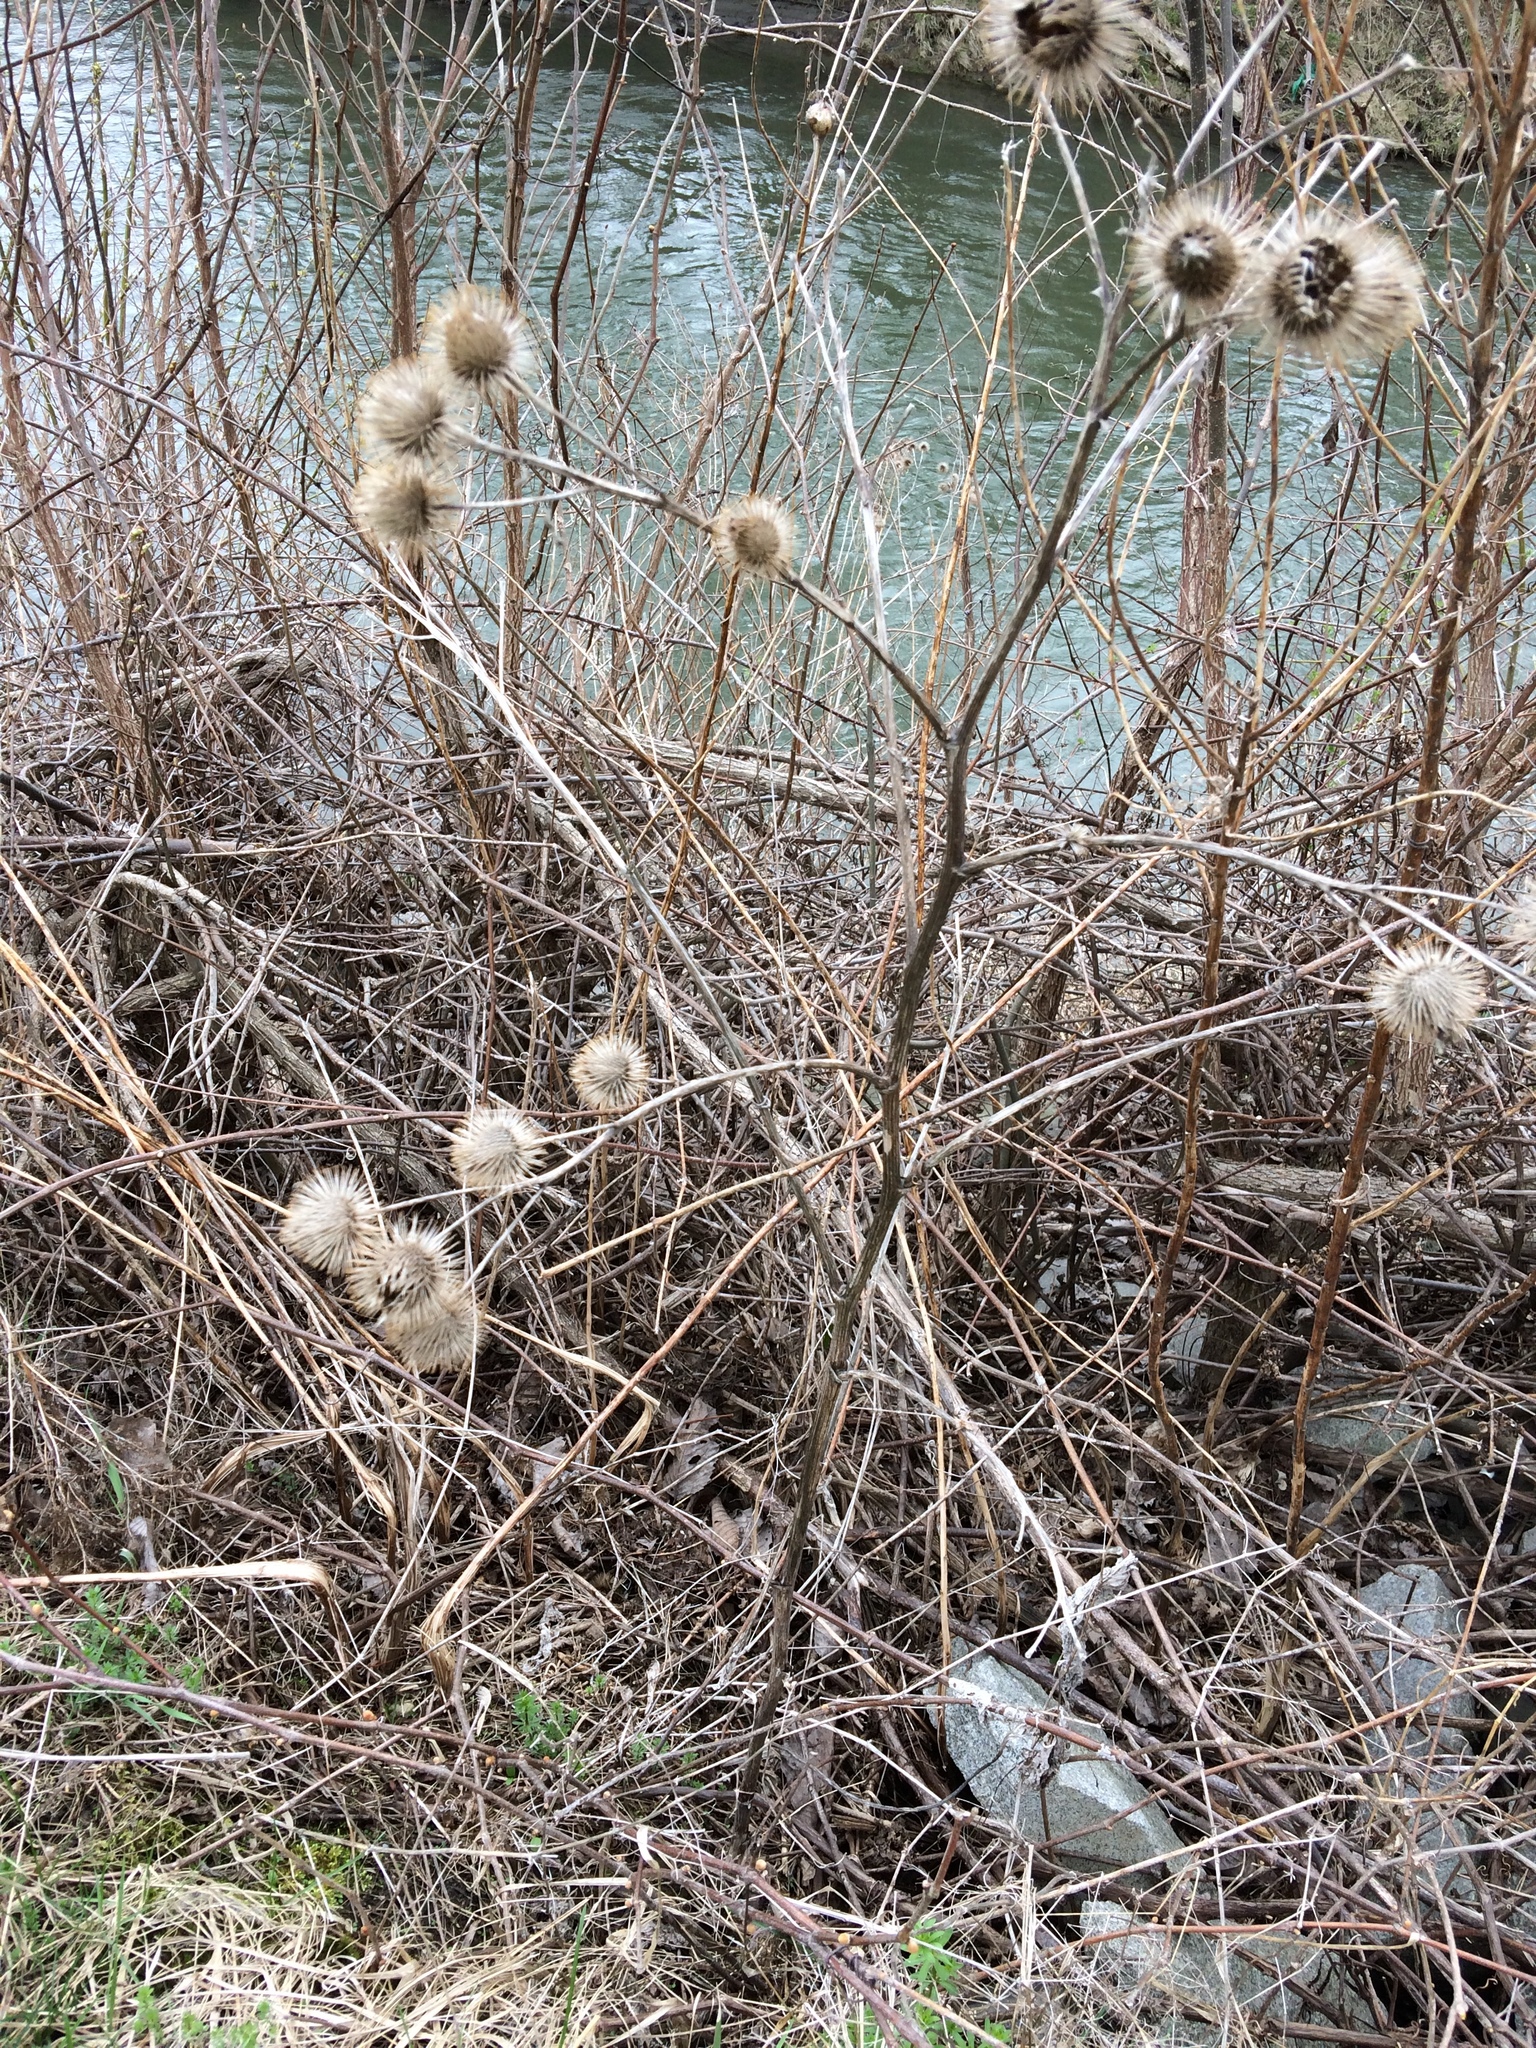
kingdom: Plantae
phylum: Tracheophyta
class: Magnoliopsida
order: Asterales
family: Asteraceae
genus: Arctium
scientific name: Arctium lappa
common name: Greater burdock
